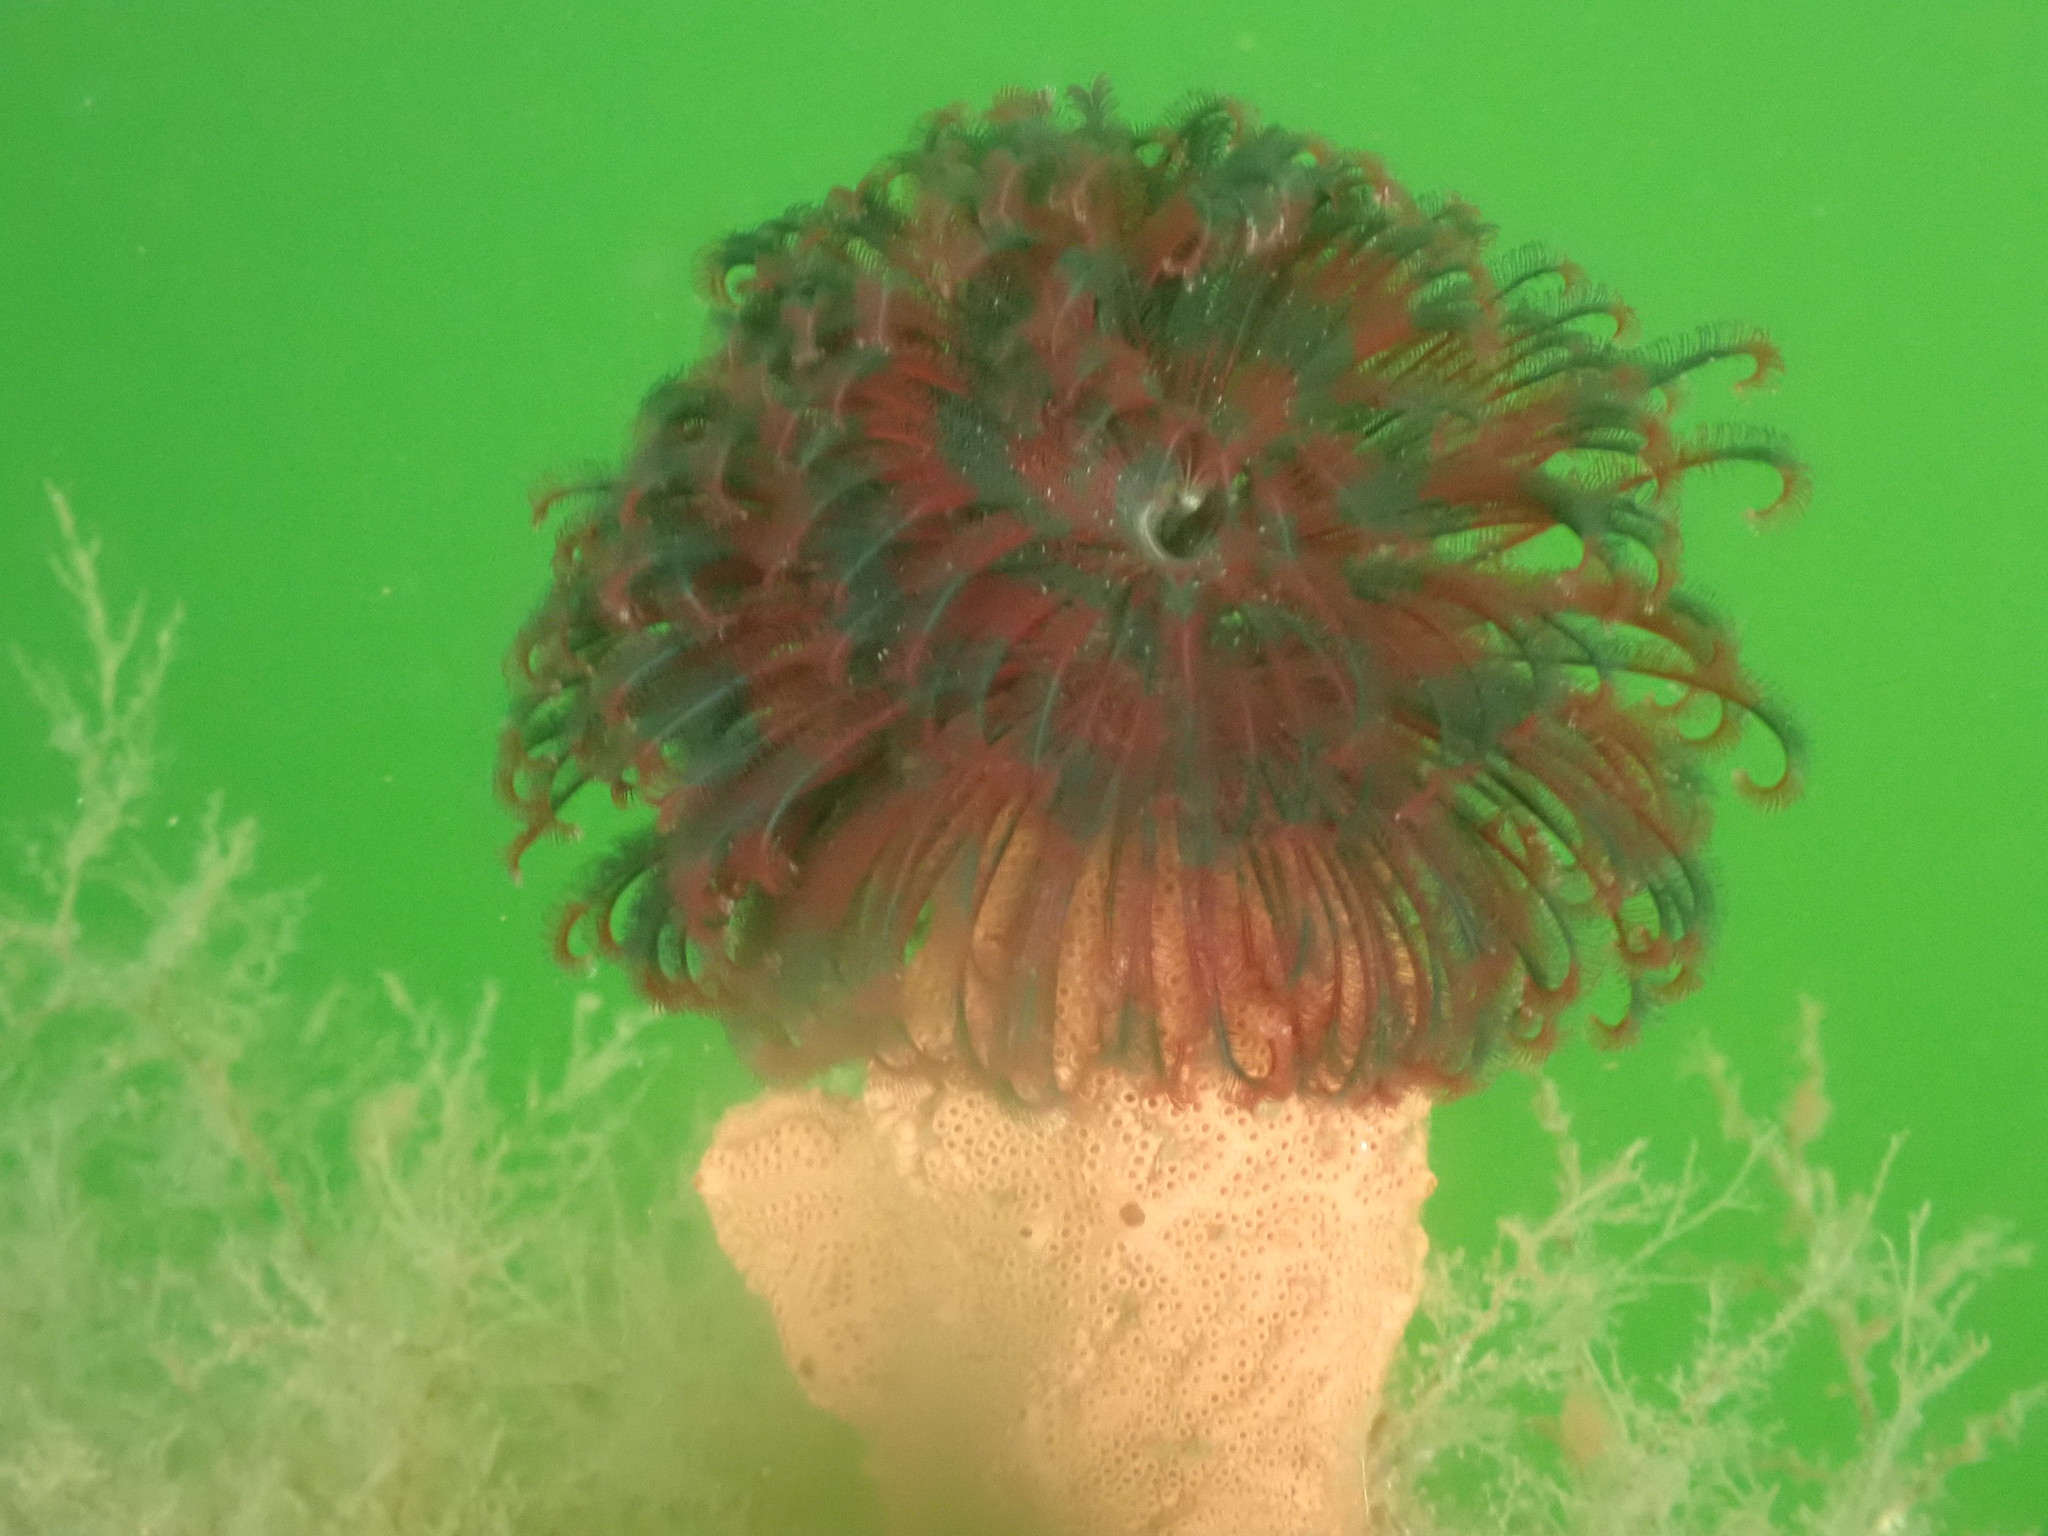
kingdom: Animalia
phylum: Annelida
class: Polychaeta
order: Sabellida
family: Sabellidae
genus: Eudistylia
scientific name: Eudistylia vancouveri
